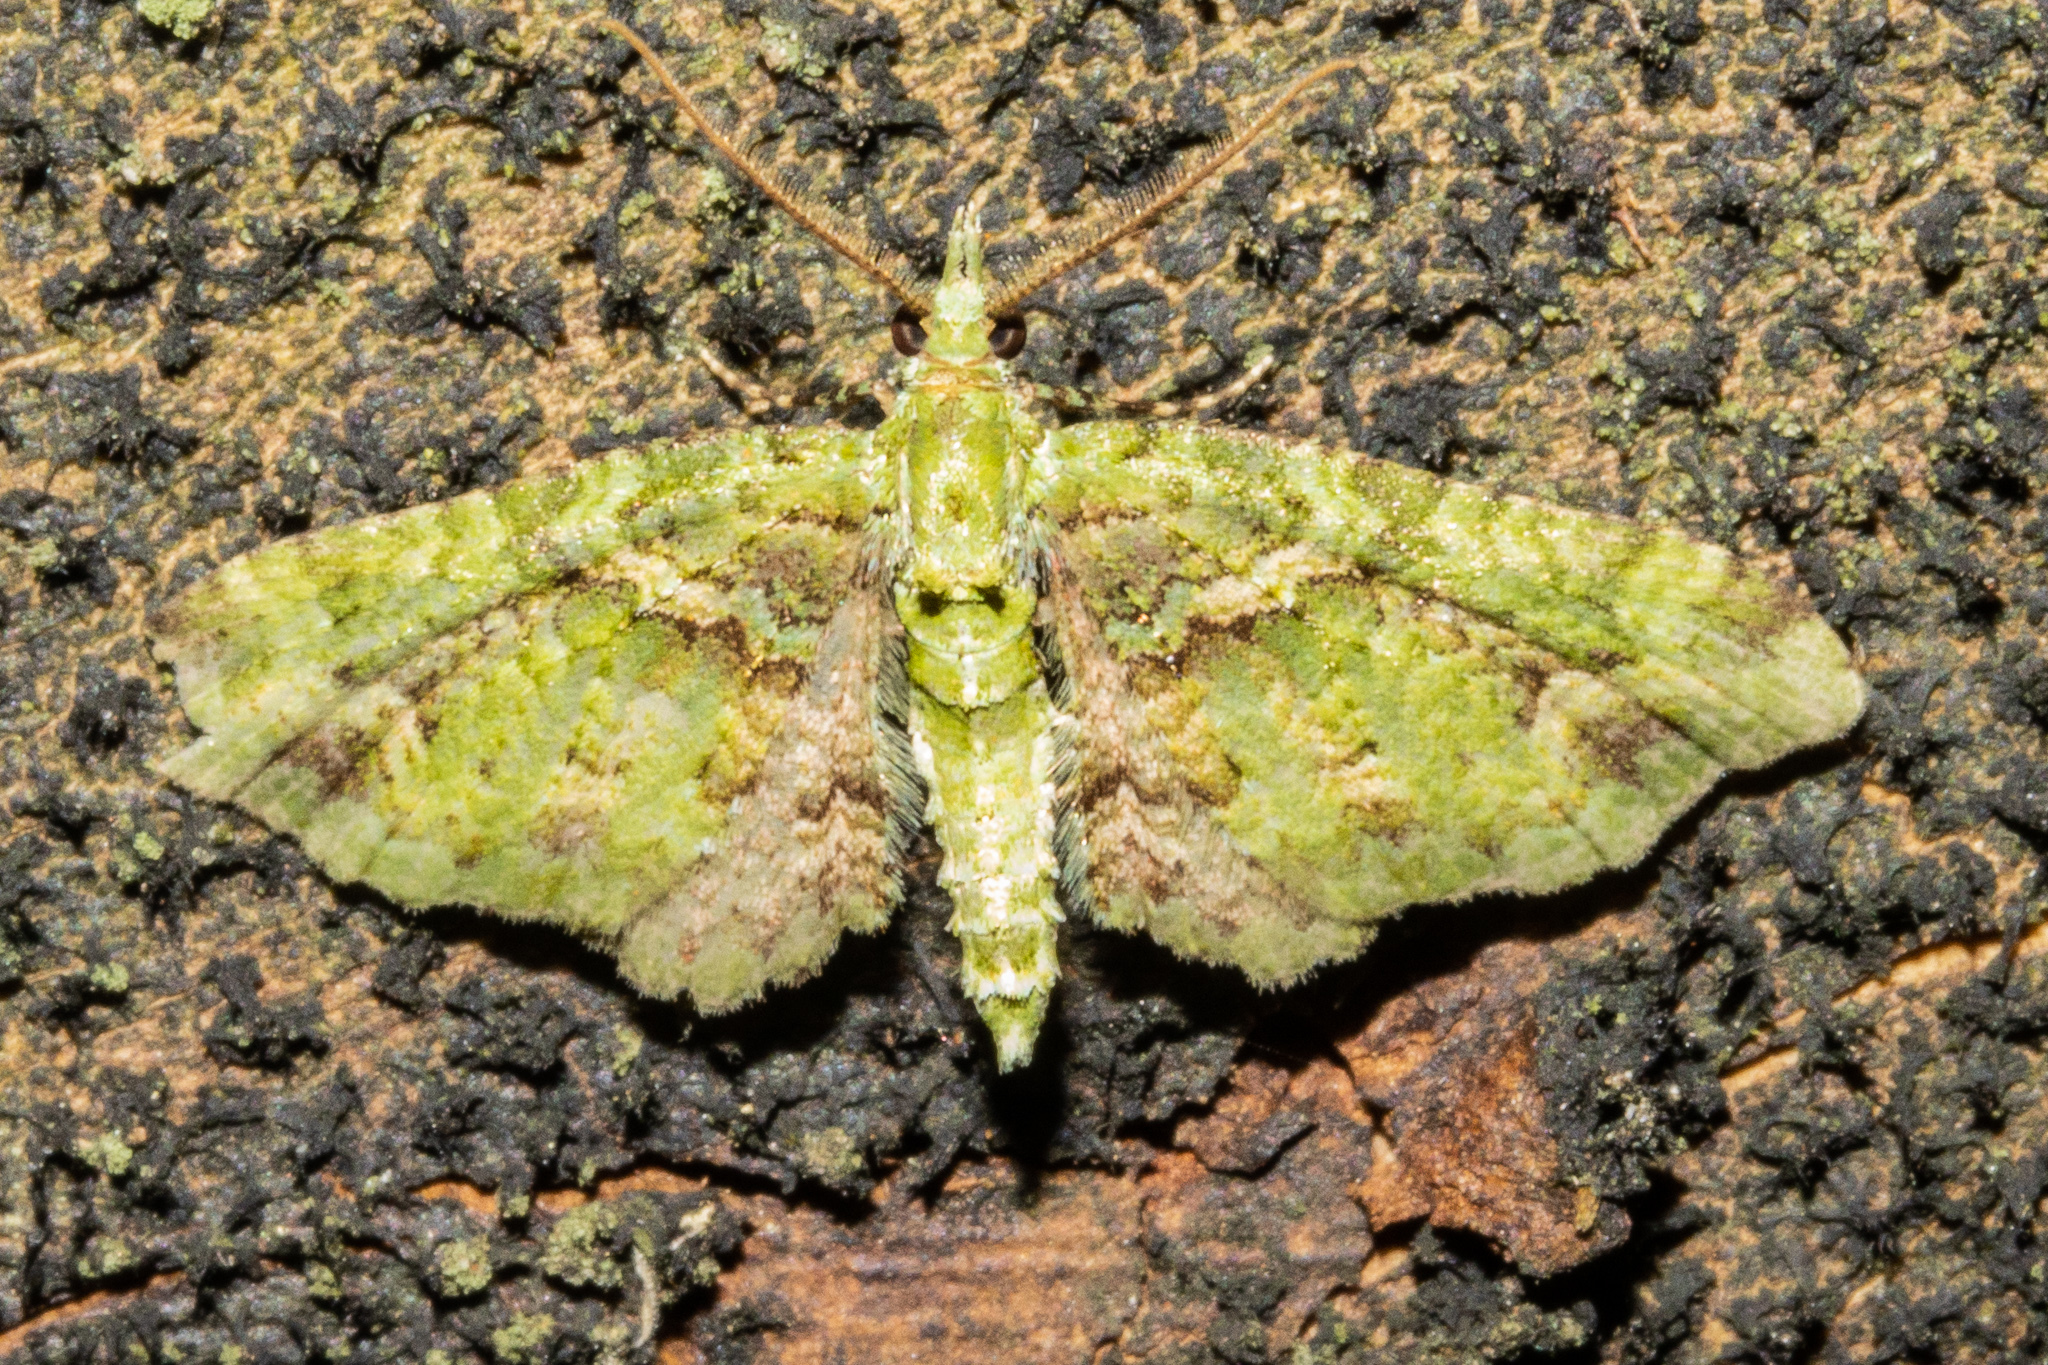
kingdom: Animalia
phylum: Arthropoda
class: Insecta
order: Lepidoptera
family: Geometridae
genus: Pasiphila
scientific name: Pasiphila muscosata
